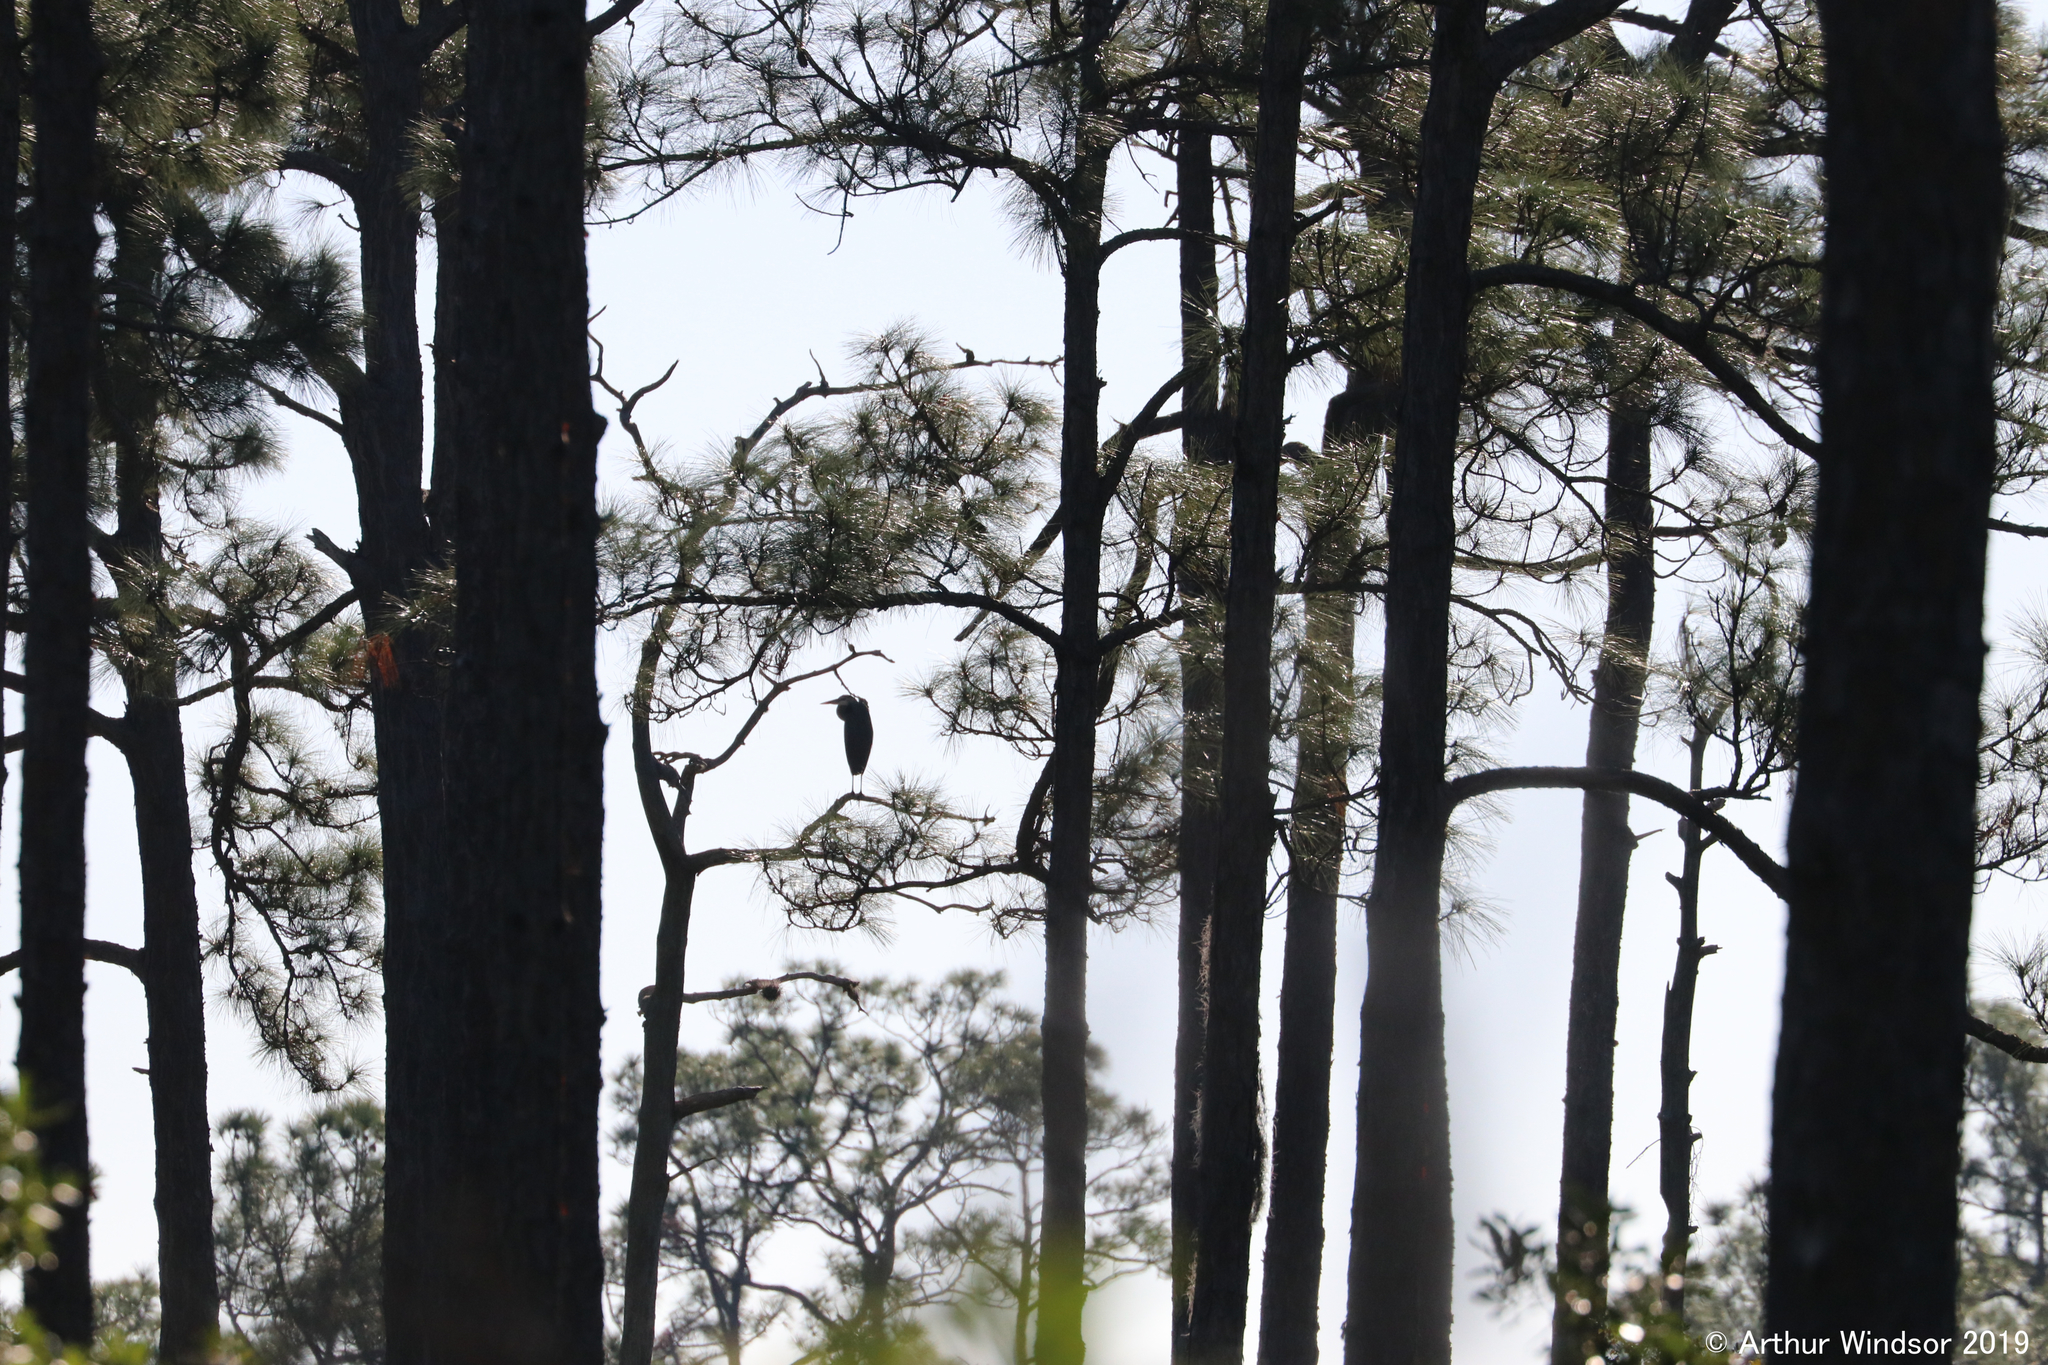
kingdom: Animalia
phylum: Chordata
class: Aves
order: Pelecaniformes
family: Ardeidae
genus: Ardea
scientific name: Ardea herodias
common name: Great blue heron
